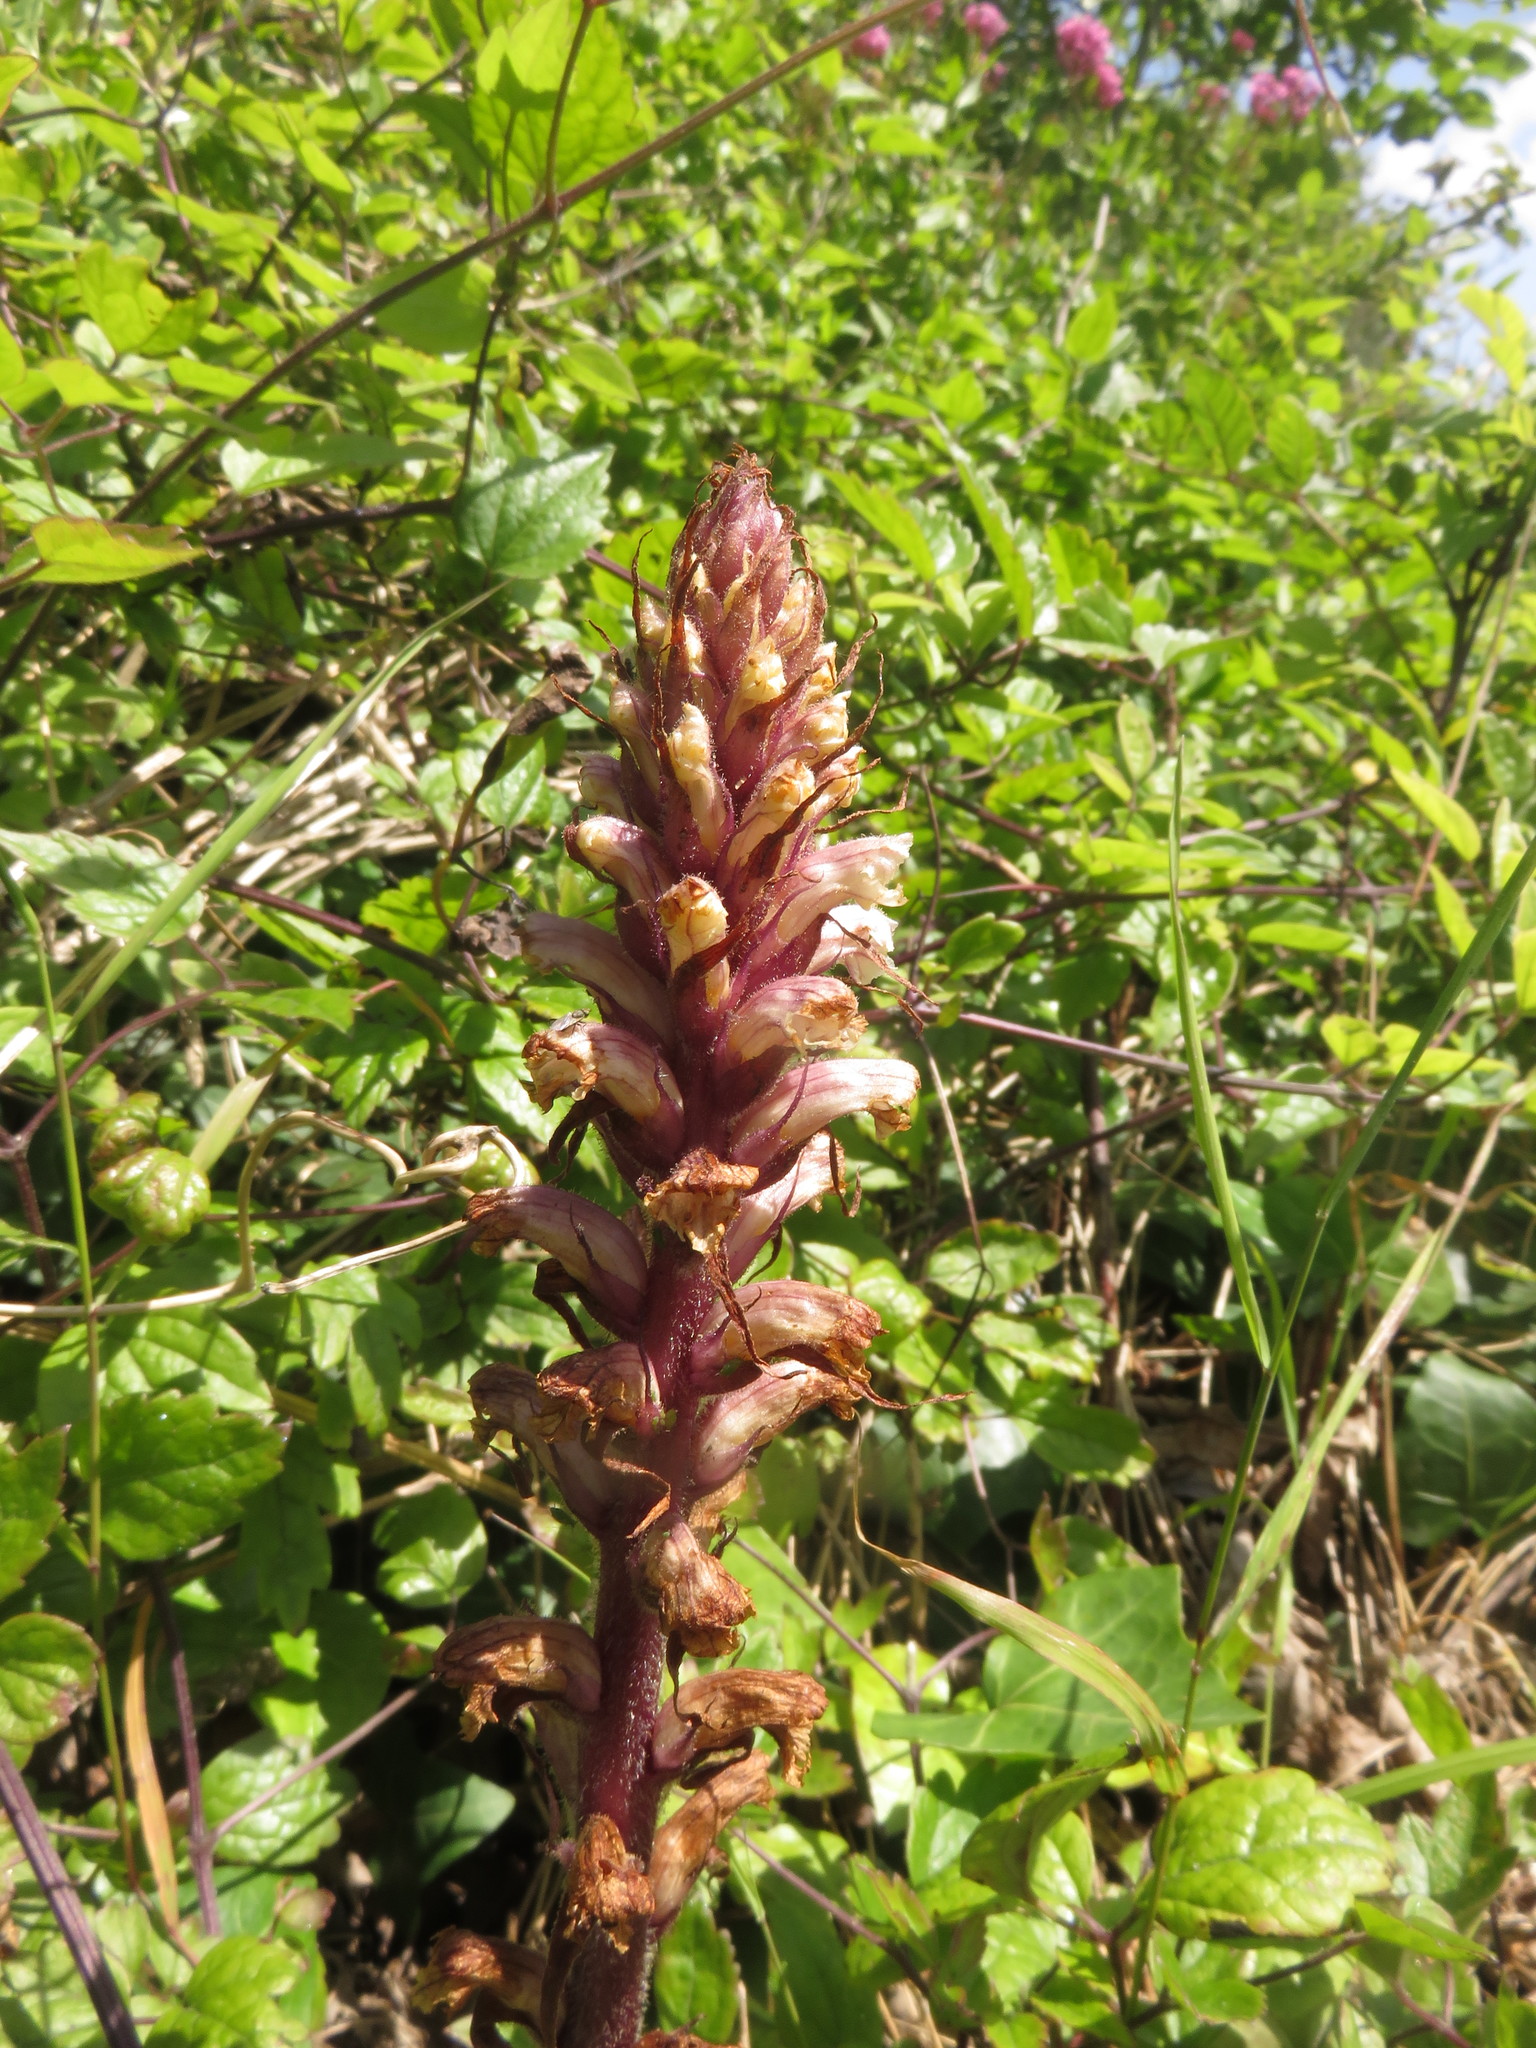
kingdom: Plantae
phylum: Tracheophyta
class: Magnoliopsida
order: Lamiales
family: Orobanchaceae
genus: Orobanche
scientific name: Orobanche hederae
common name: Ivy broomrape
